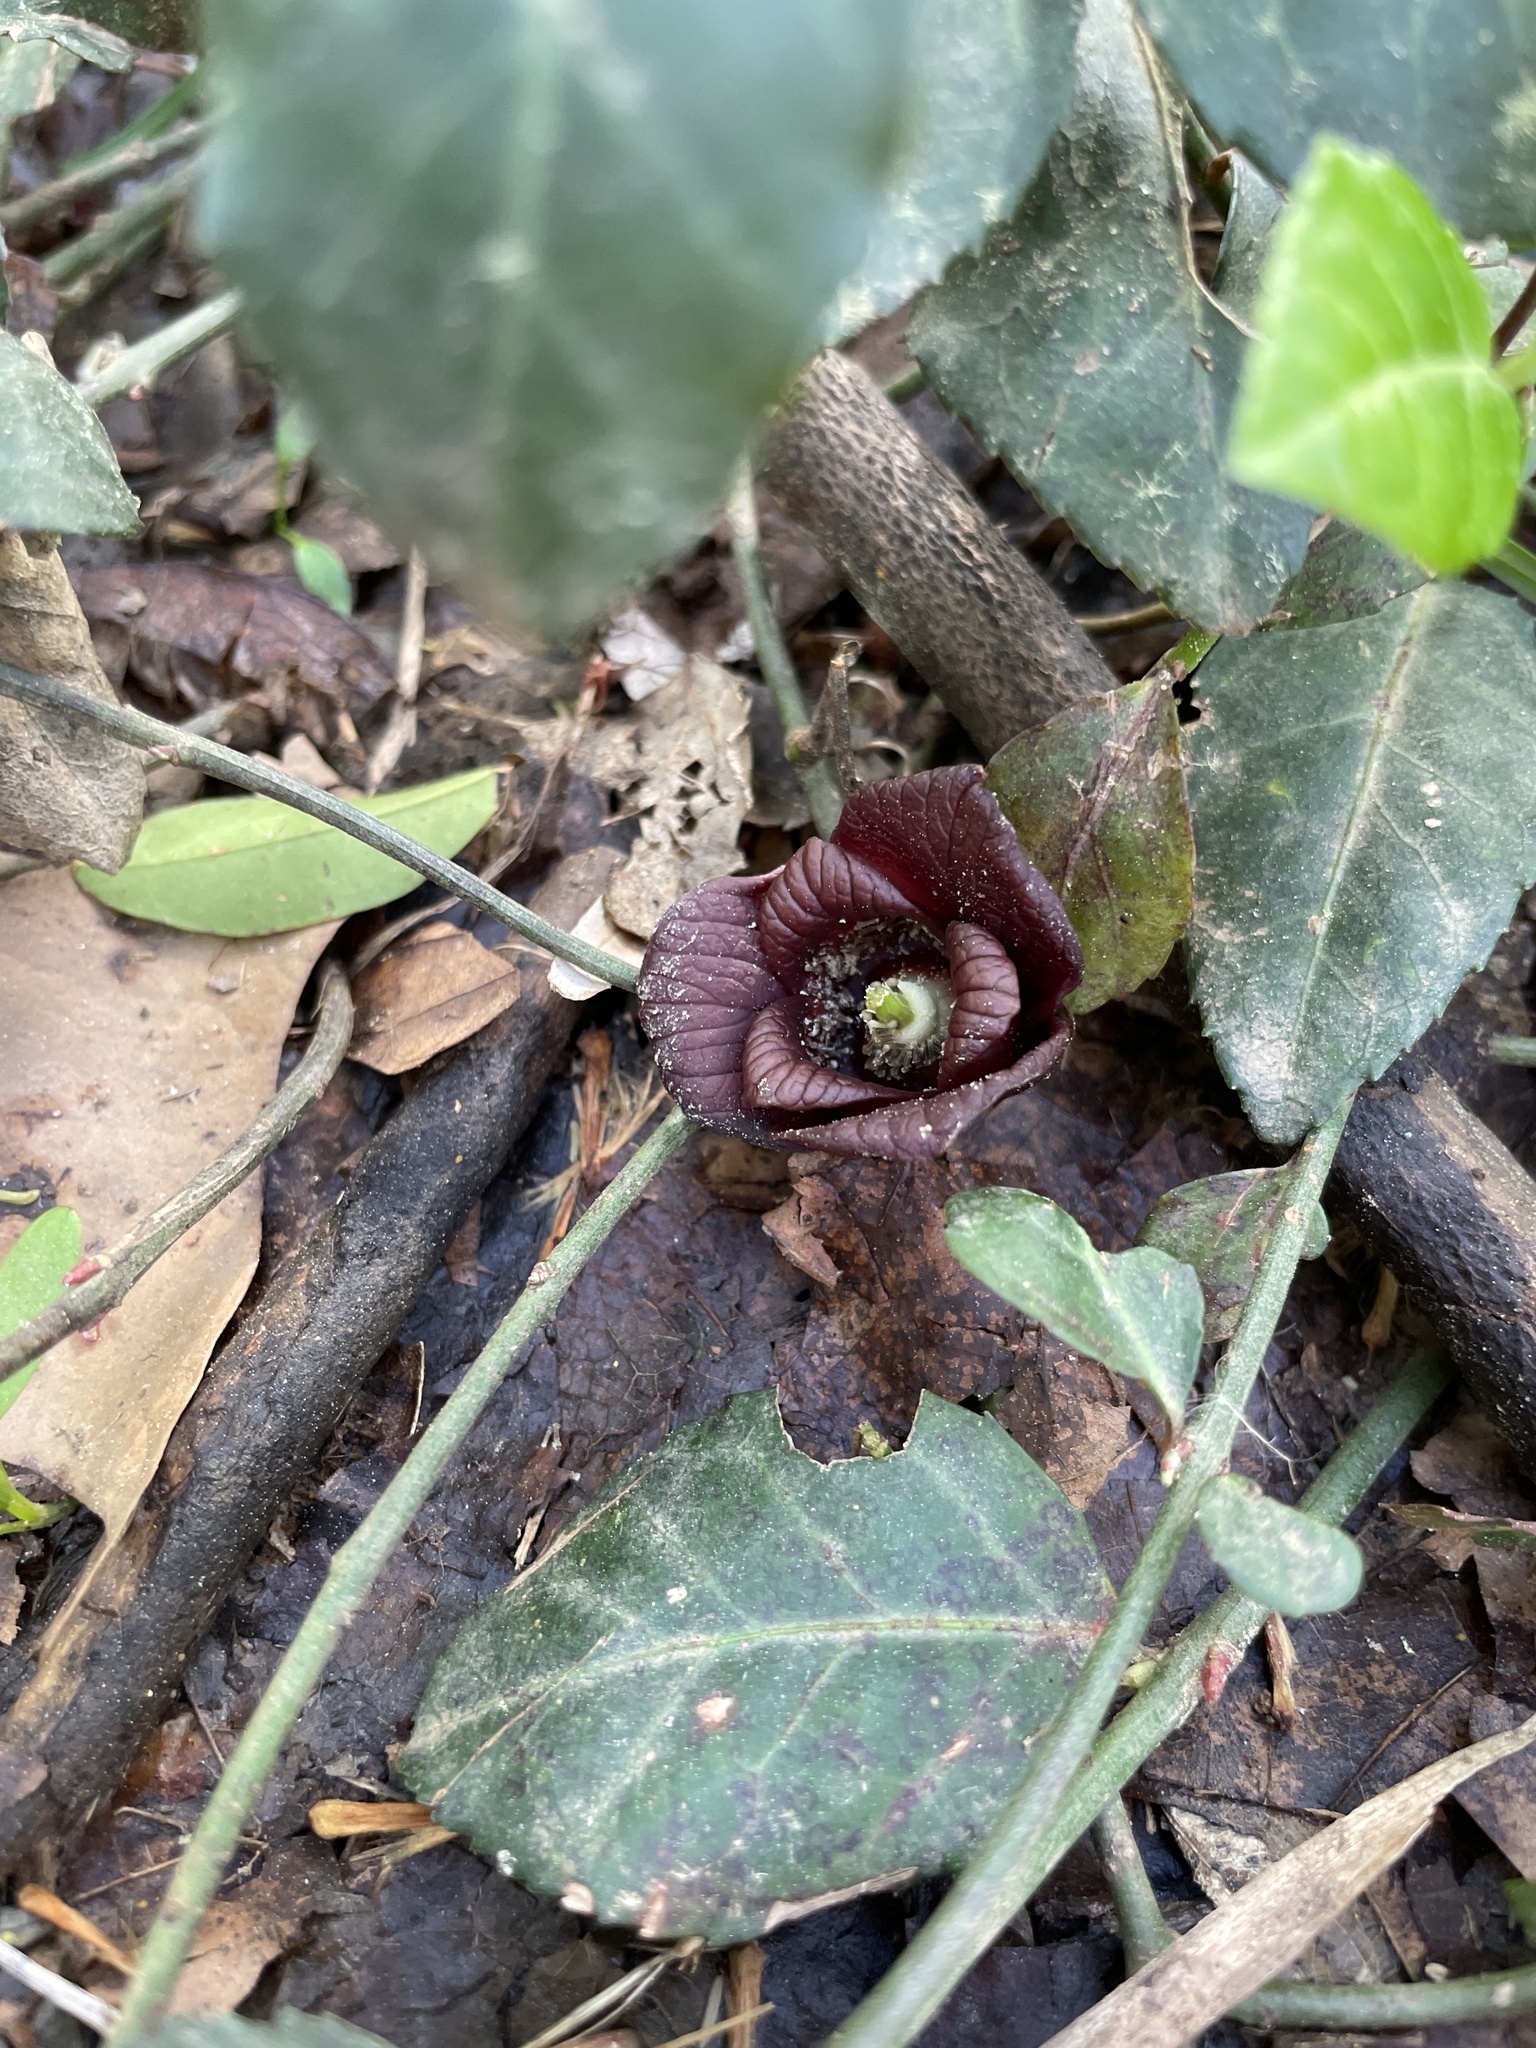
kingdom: Plantae
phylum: Tracheophyta
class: Magnoliopsida
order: Magnoliales
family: Annonaceae
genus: Asimina
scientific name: Asimina triloba
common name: Dog-banana
